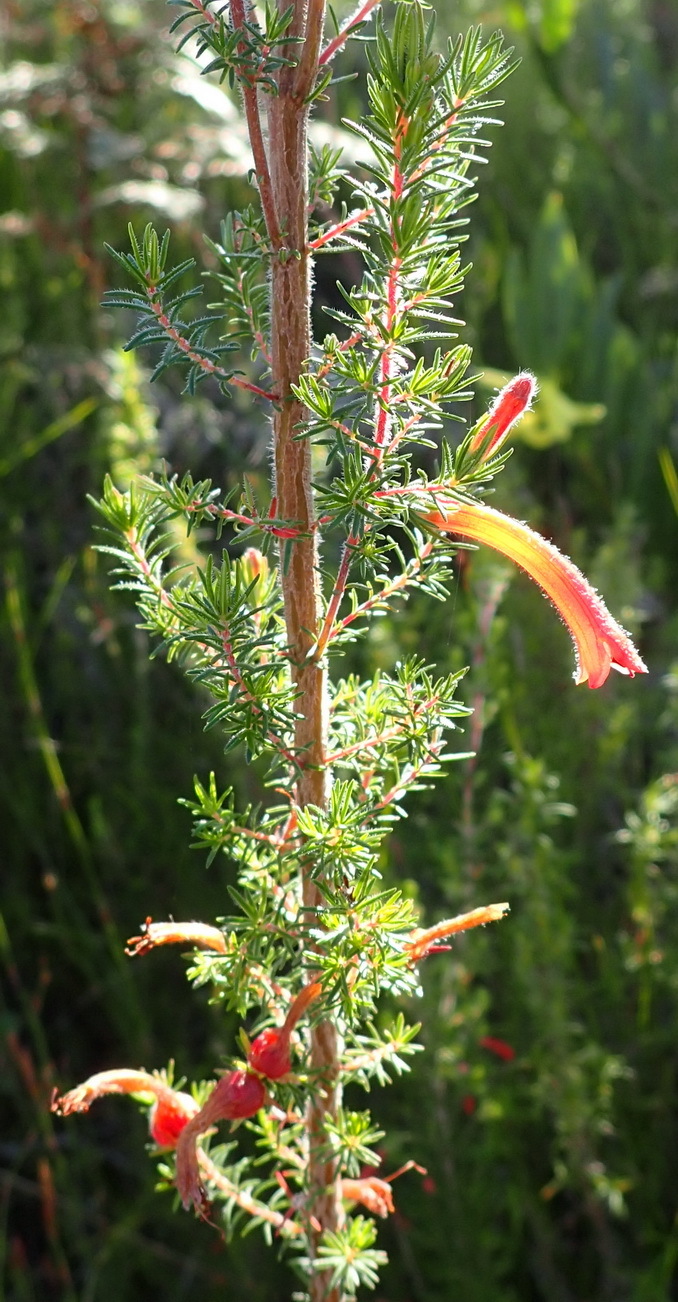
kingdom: Plantae
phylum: Tracheophyta
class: Magnoliopsida
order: Ericales
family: Ericaceae
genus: Erica
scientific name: Erica curviflora
